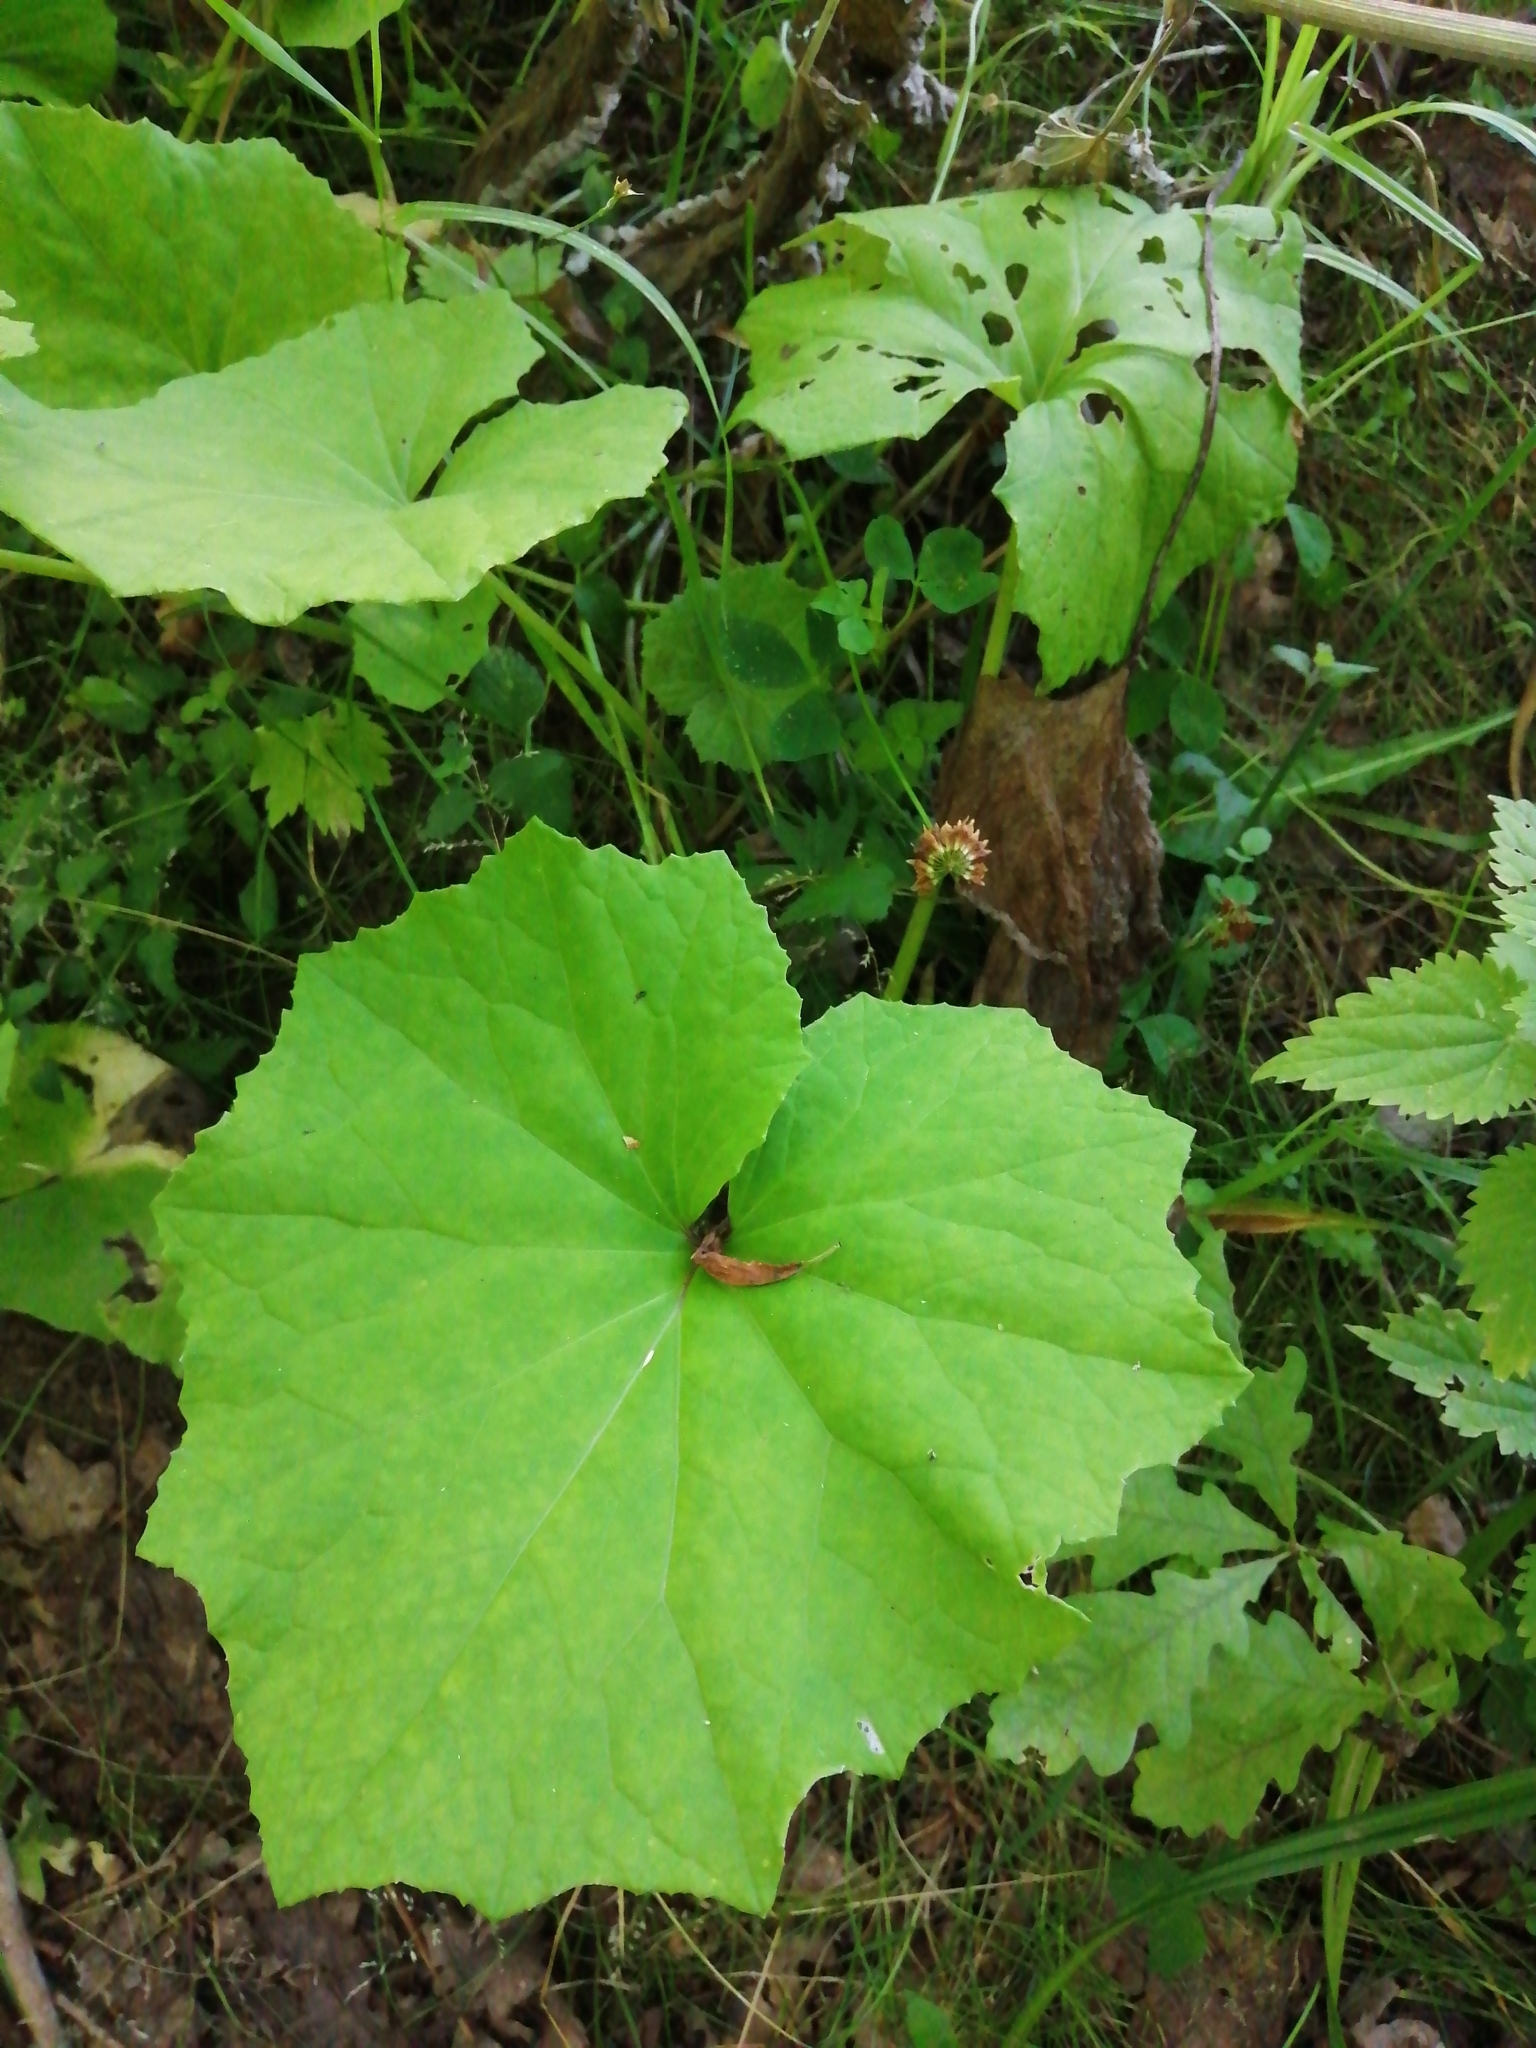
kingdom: Plantae
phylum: Tracheophyta
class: Magnoliopsida
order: Asterales
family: Asteraceae
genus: Tussilago
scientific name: Tussilago farfara
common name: Coltsfoot
